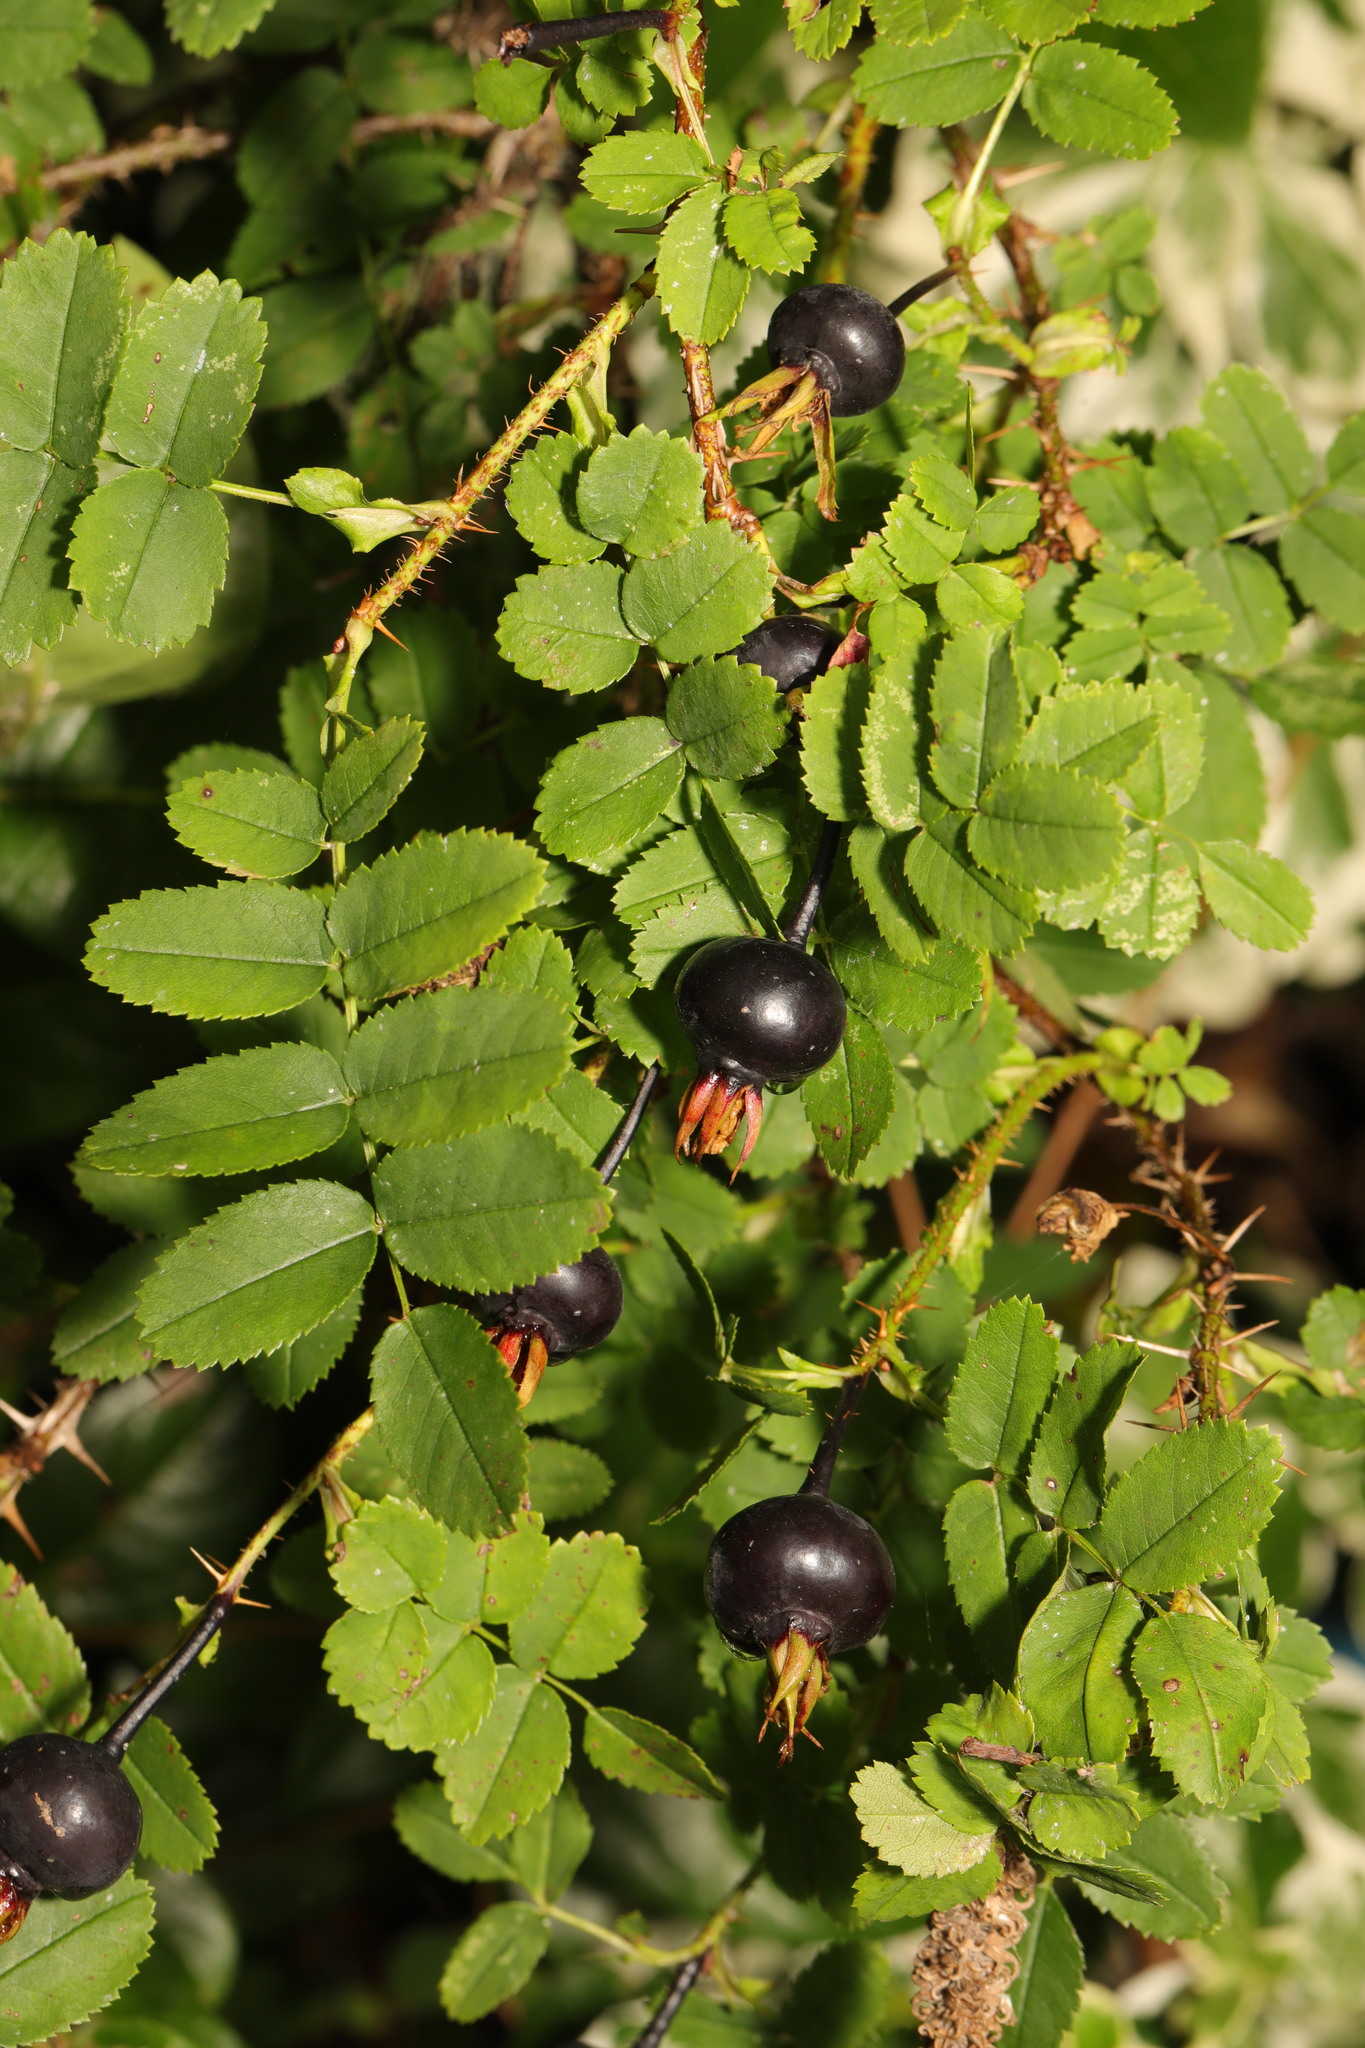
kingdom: Plantae
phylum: Tracheophyta
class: Magnoliopsida
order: Rosales
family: Rosaceae
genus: Rosa
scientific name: Rosa spinosissima
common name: Burnet rose
